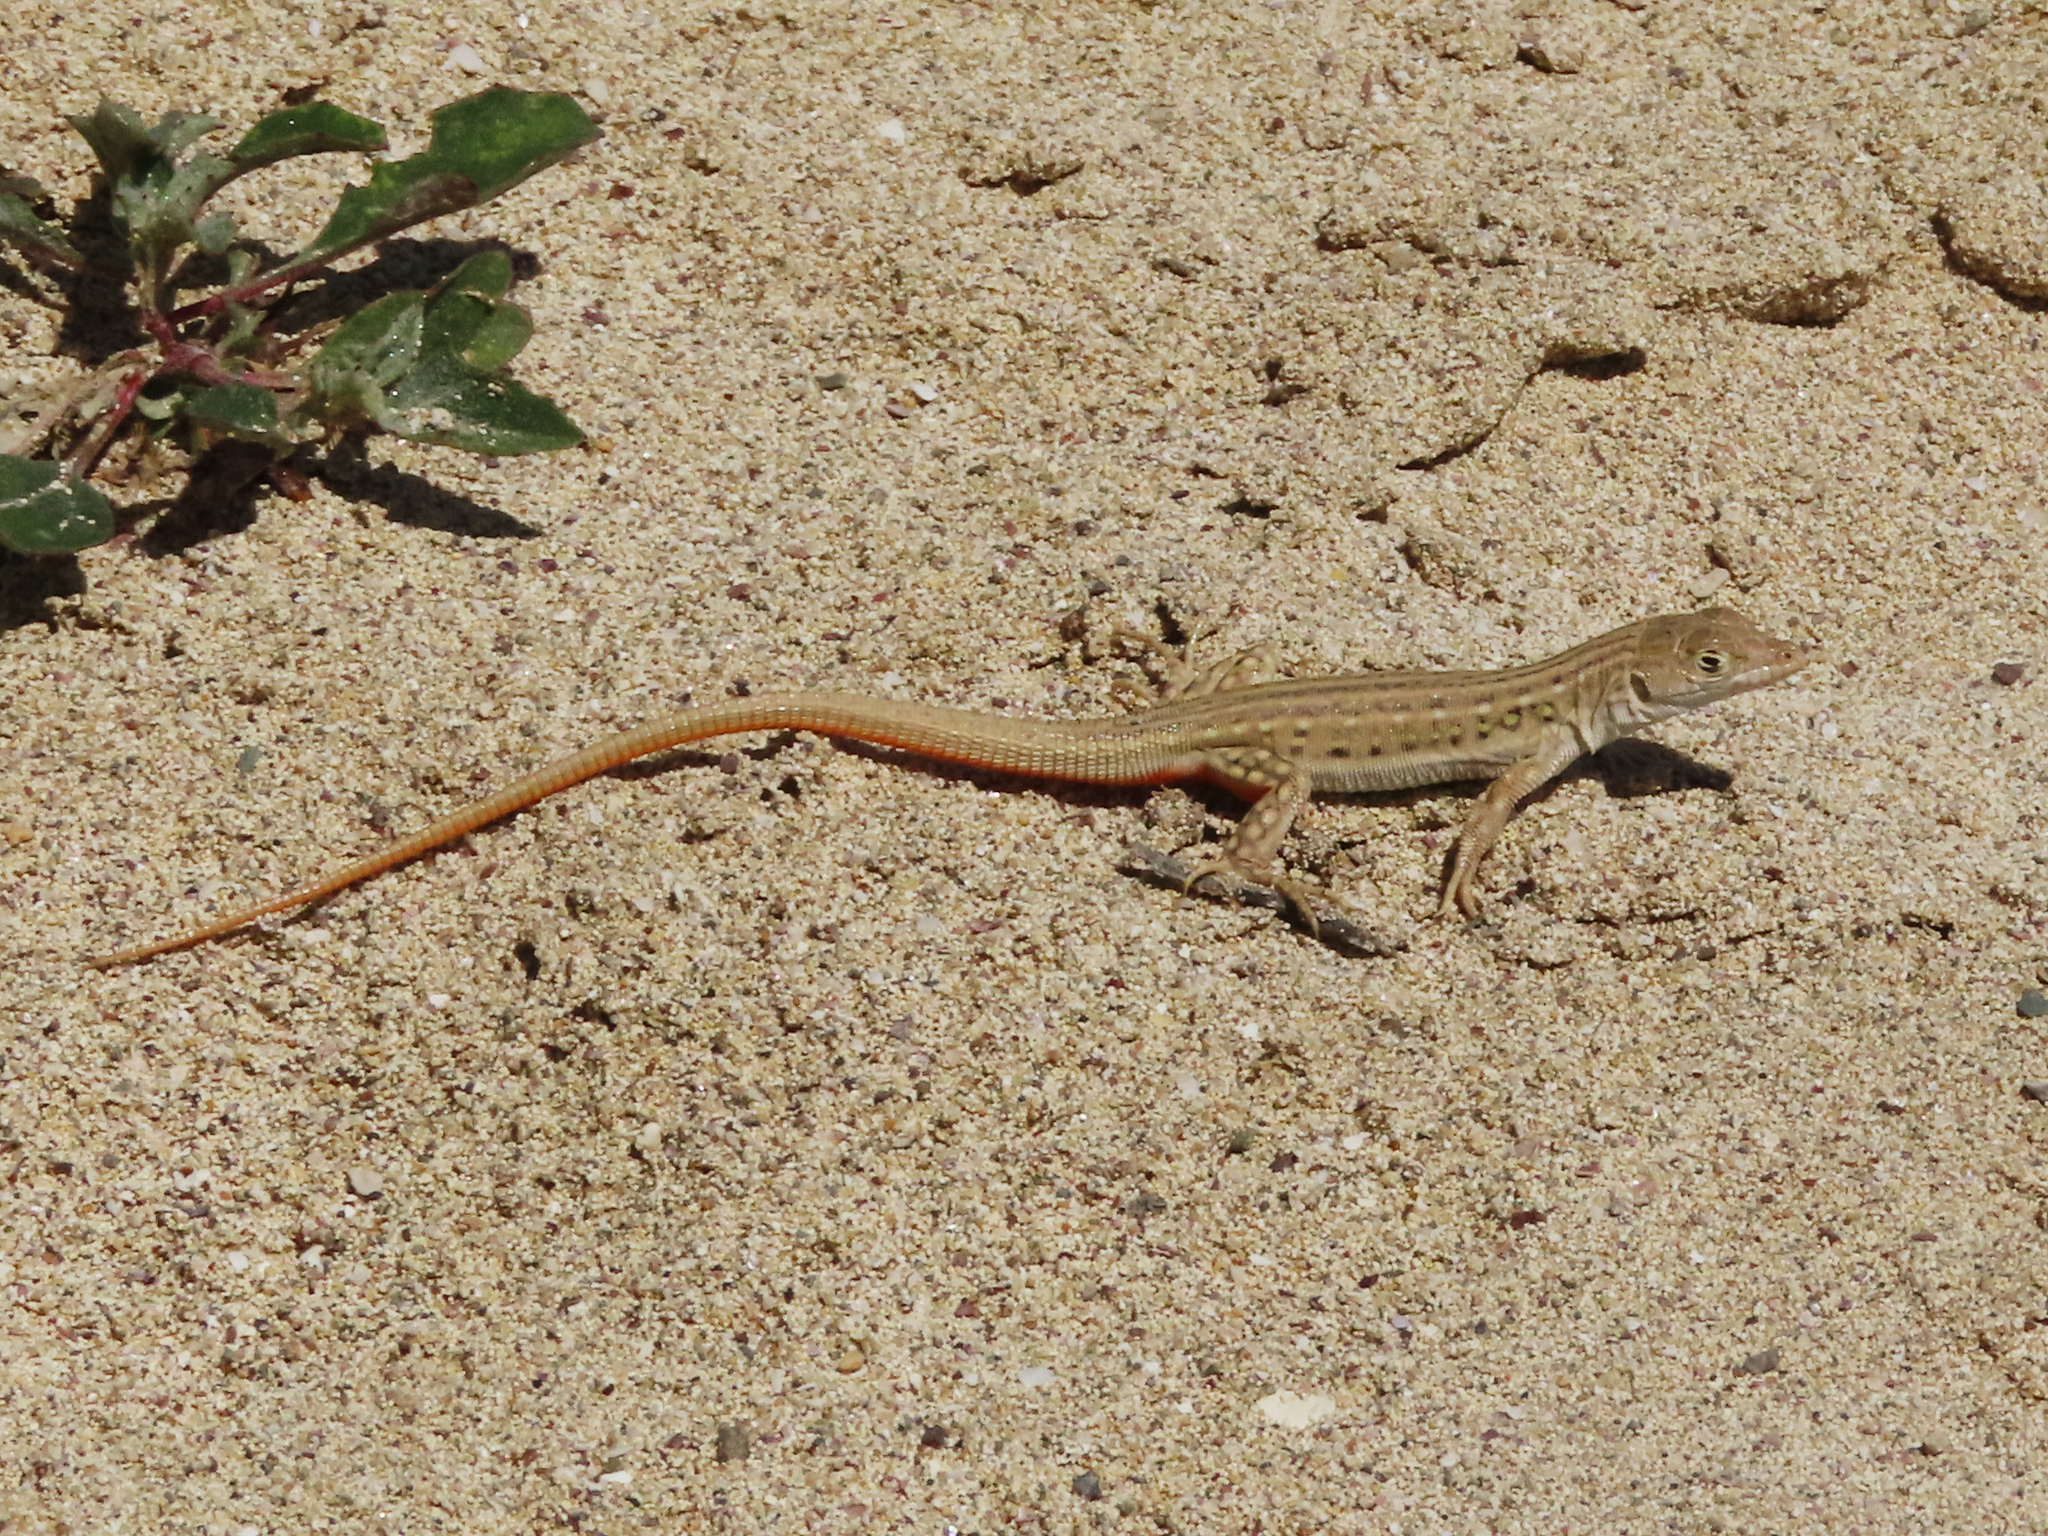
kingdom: Animalia
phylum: Chordata
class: Squamata
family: Lacertidae
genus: Eremias
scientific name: Eremias velox
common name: Central asian racerunner
